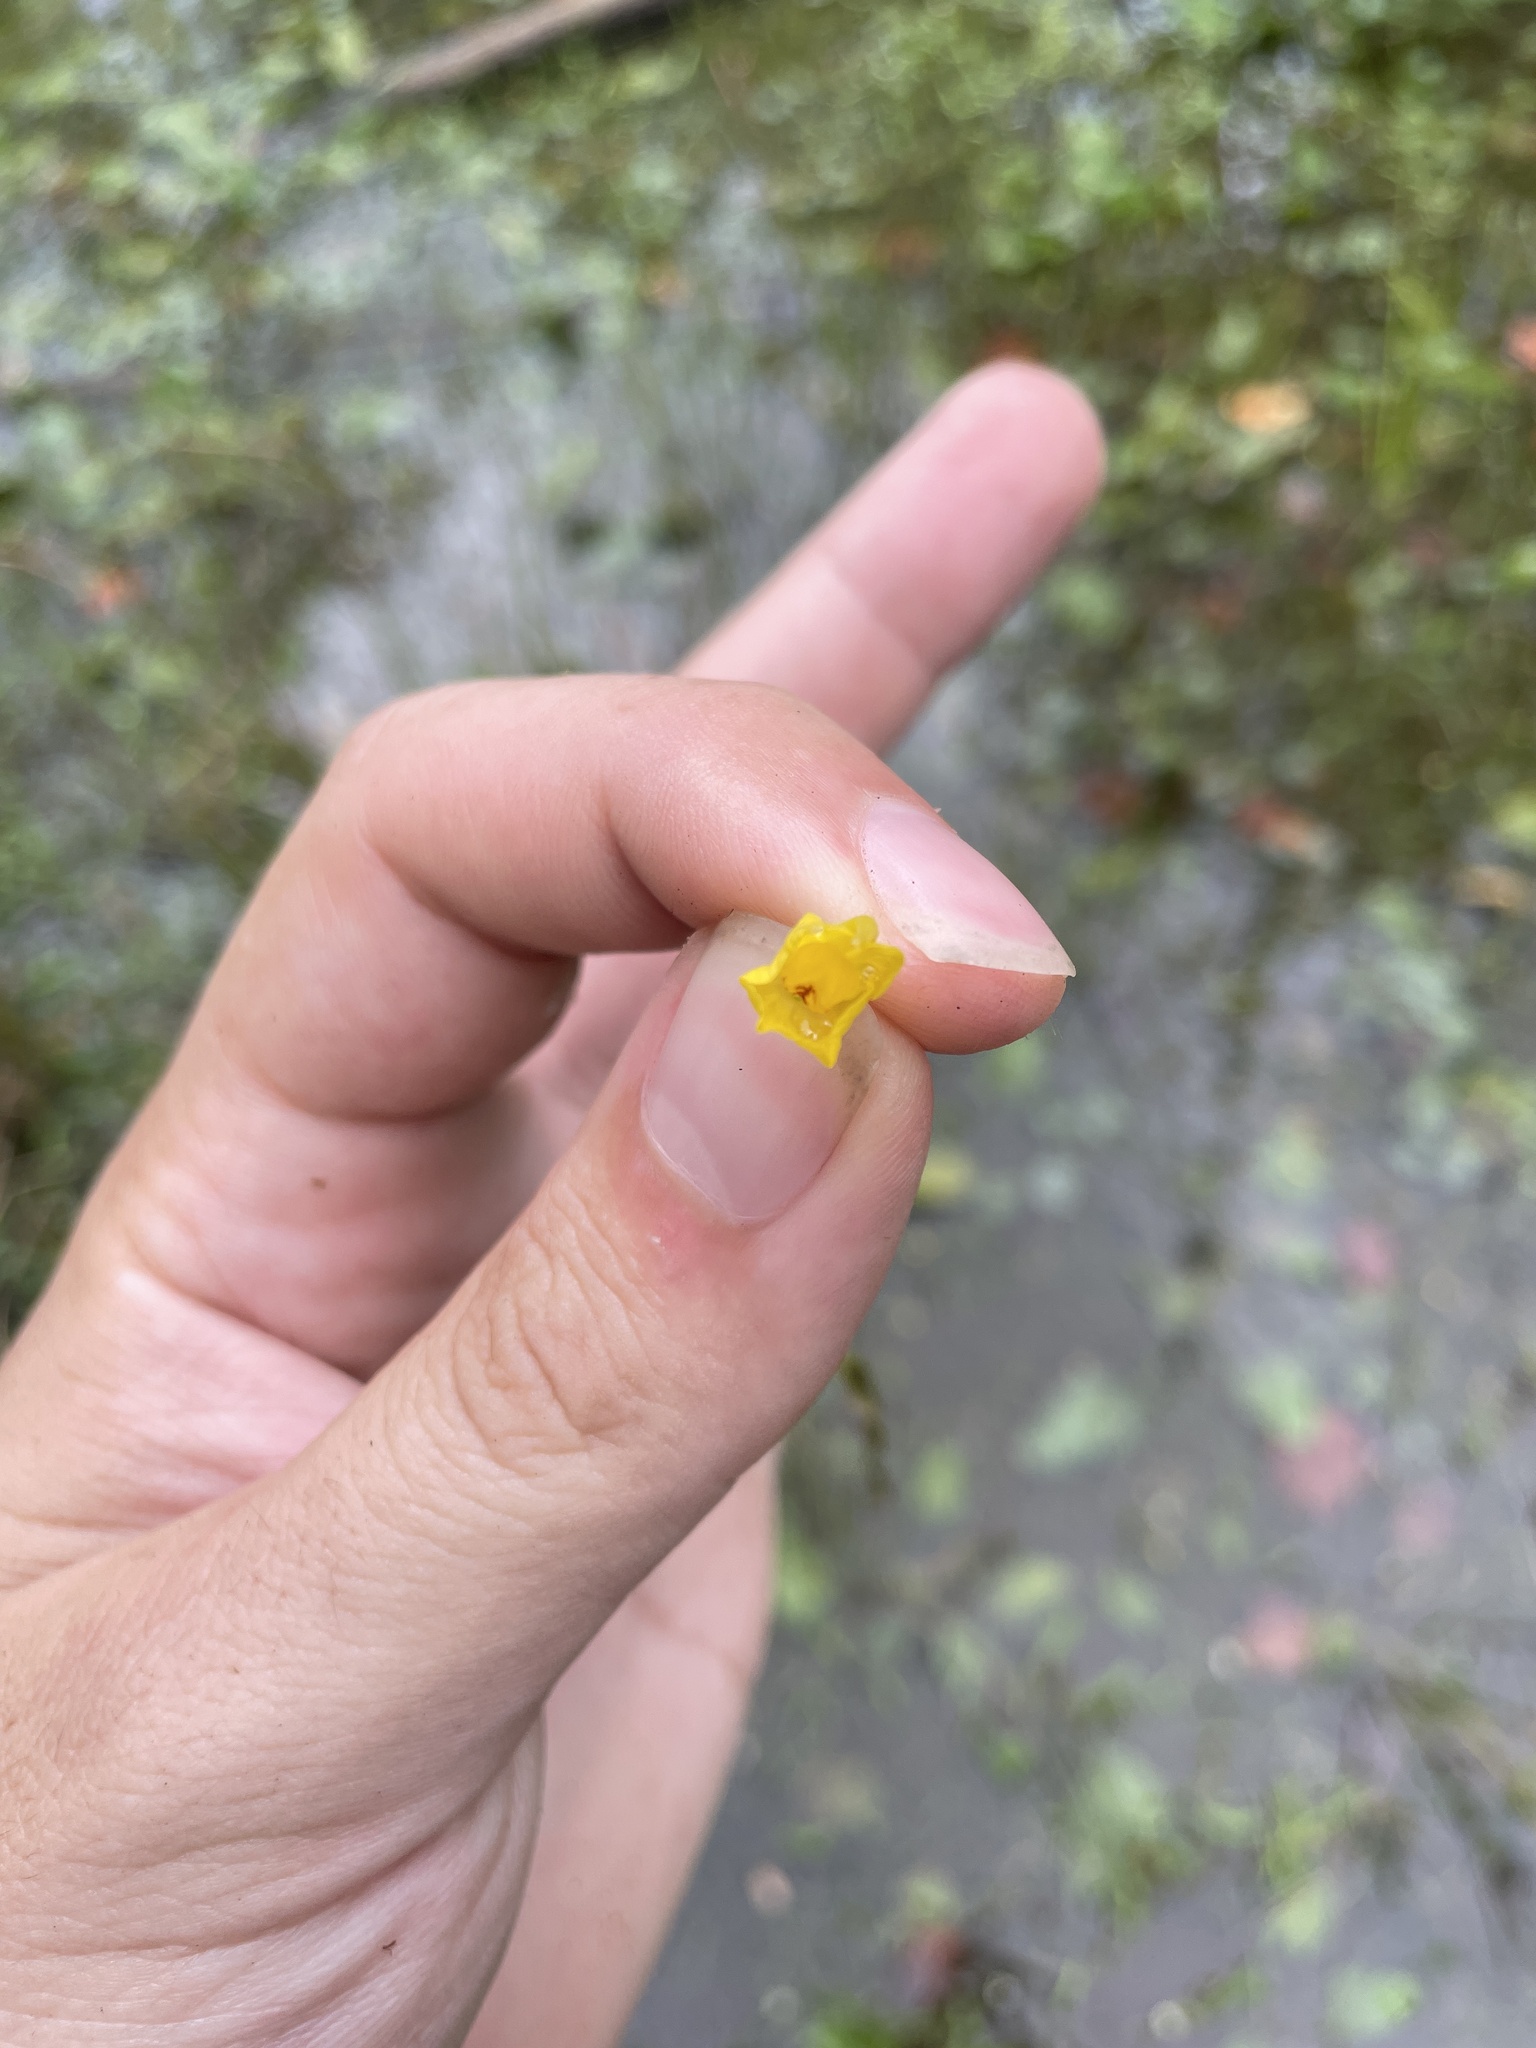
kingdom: Plantae
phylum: Tracheophyta
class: Magnoliopsida
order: Lamiales
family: Lentibulariaceae
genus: Utricularia
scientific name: Utricularia gibba
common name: Humped bladderwort
